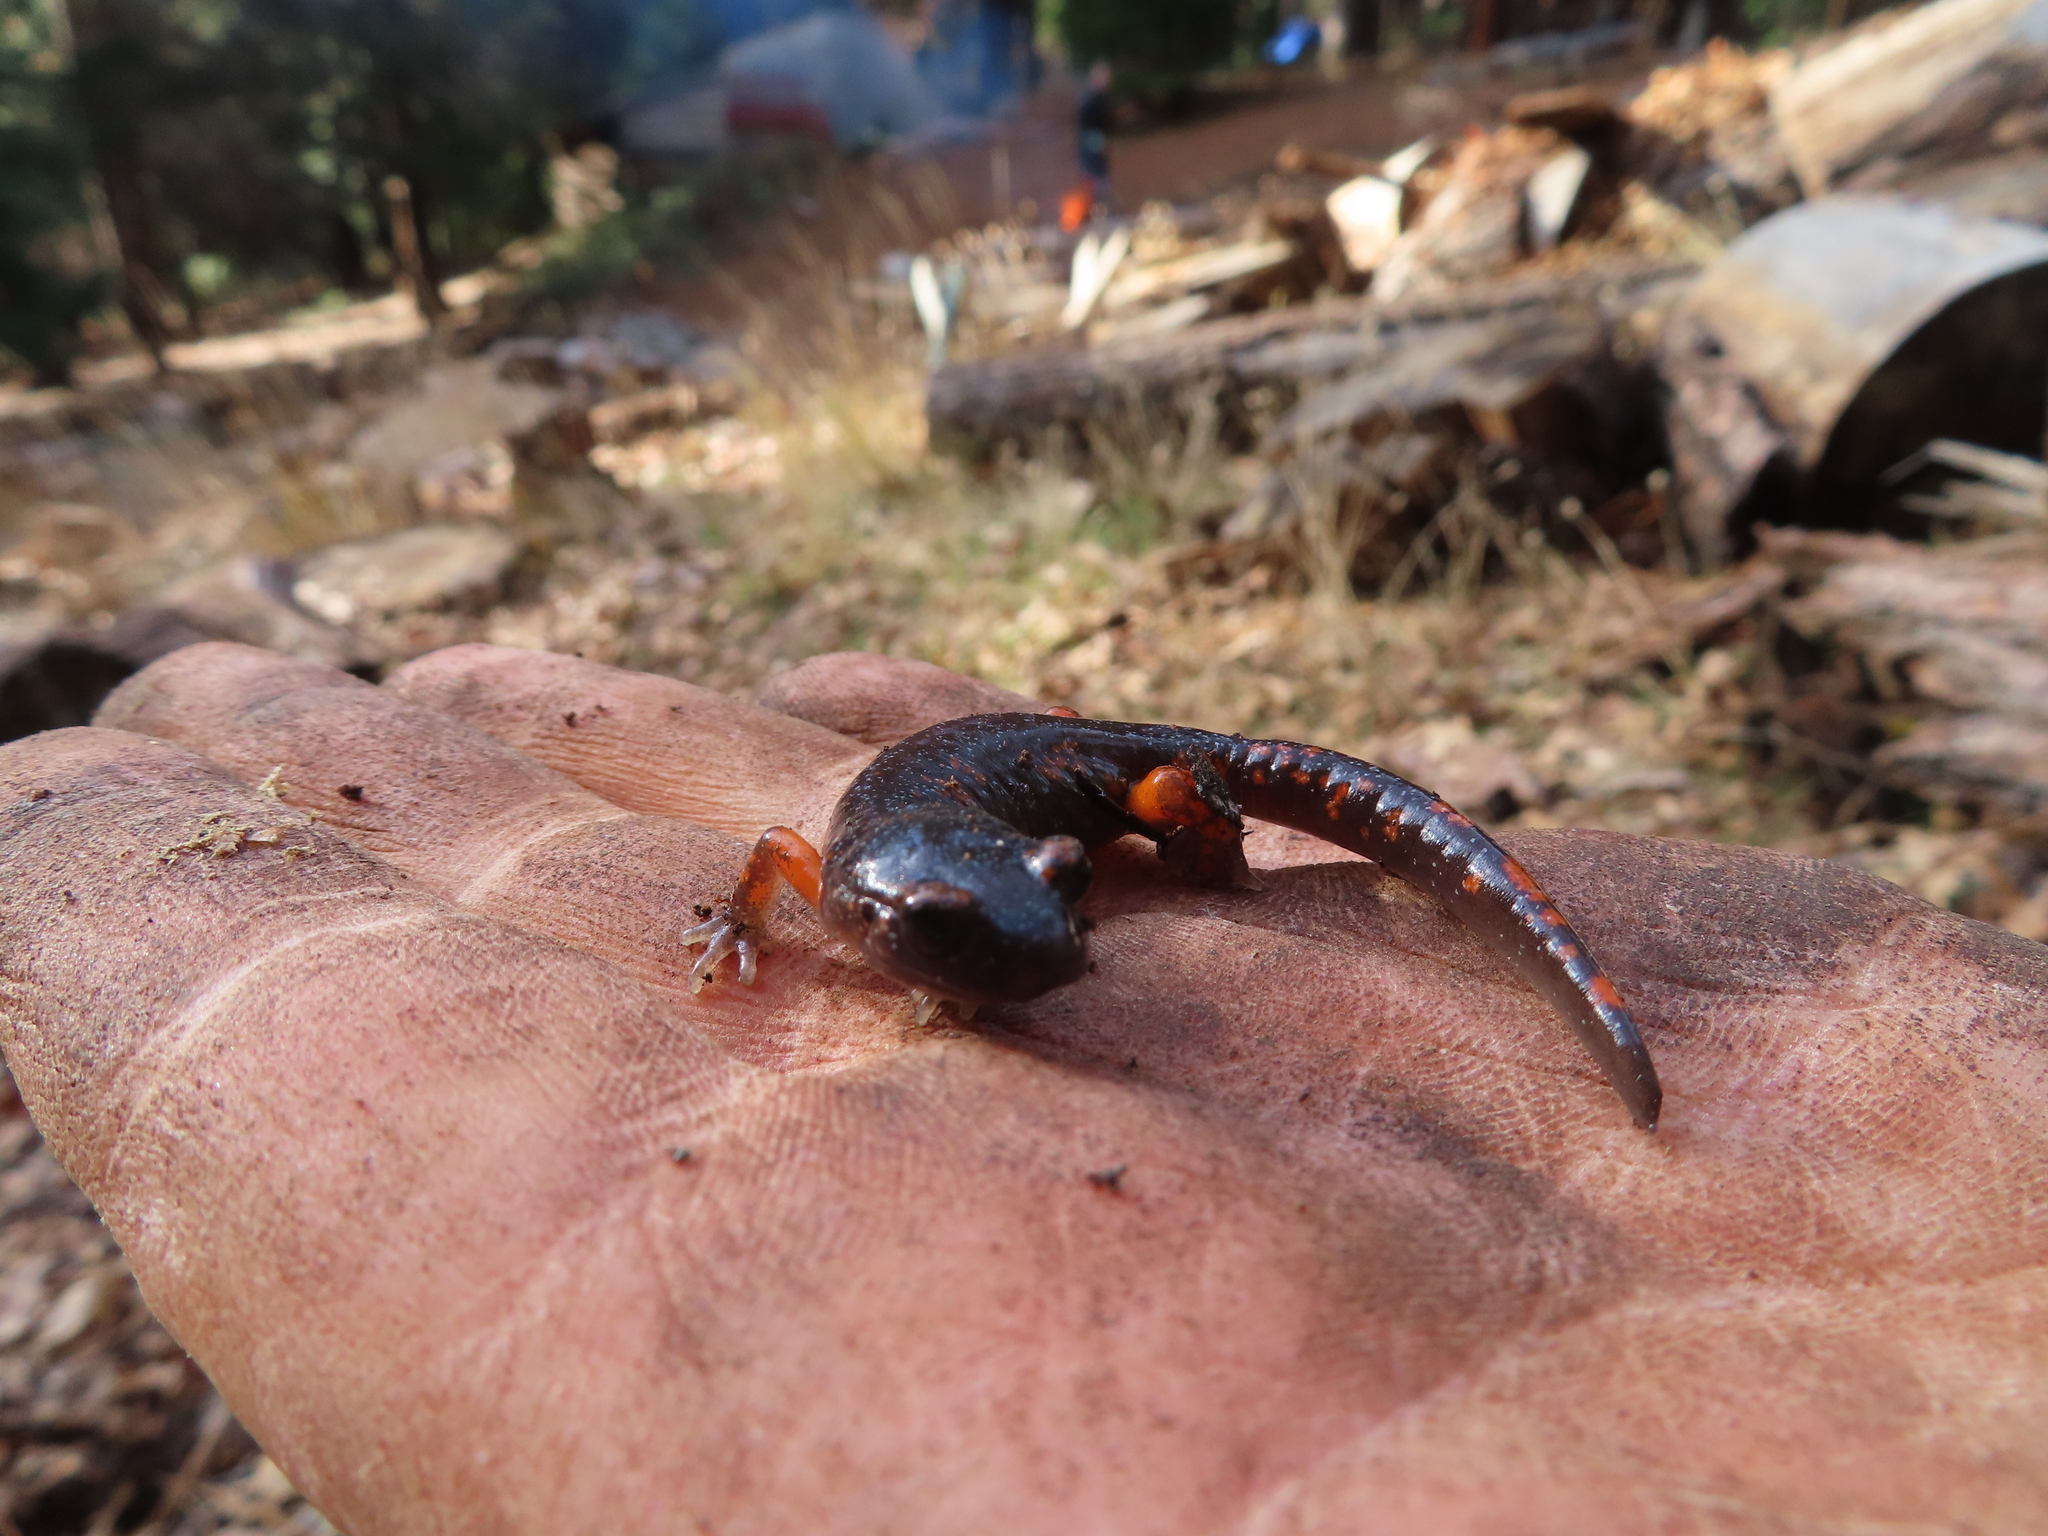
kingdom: Animalia
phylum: Chordata
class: Amphibia
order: Caudata
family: Plethodontidae
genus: Ensatina
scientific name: Ensatina eschscholtzii
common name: Ensatina
